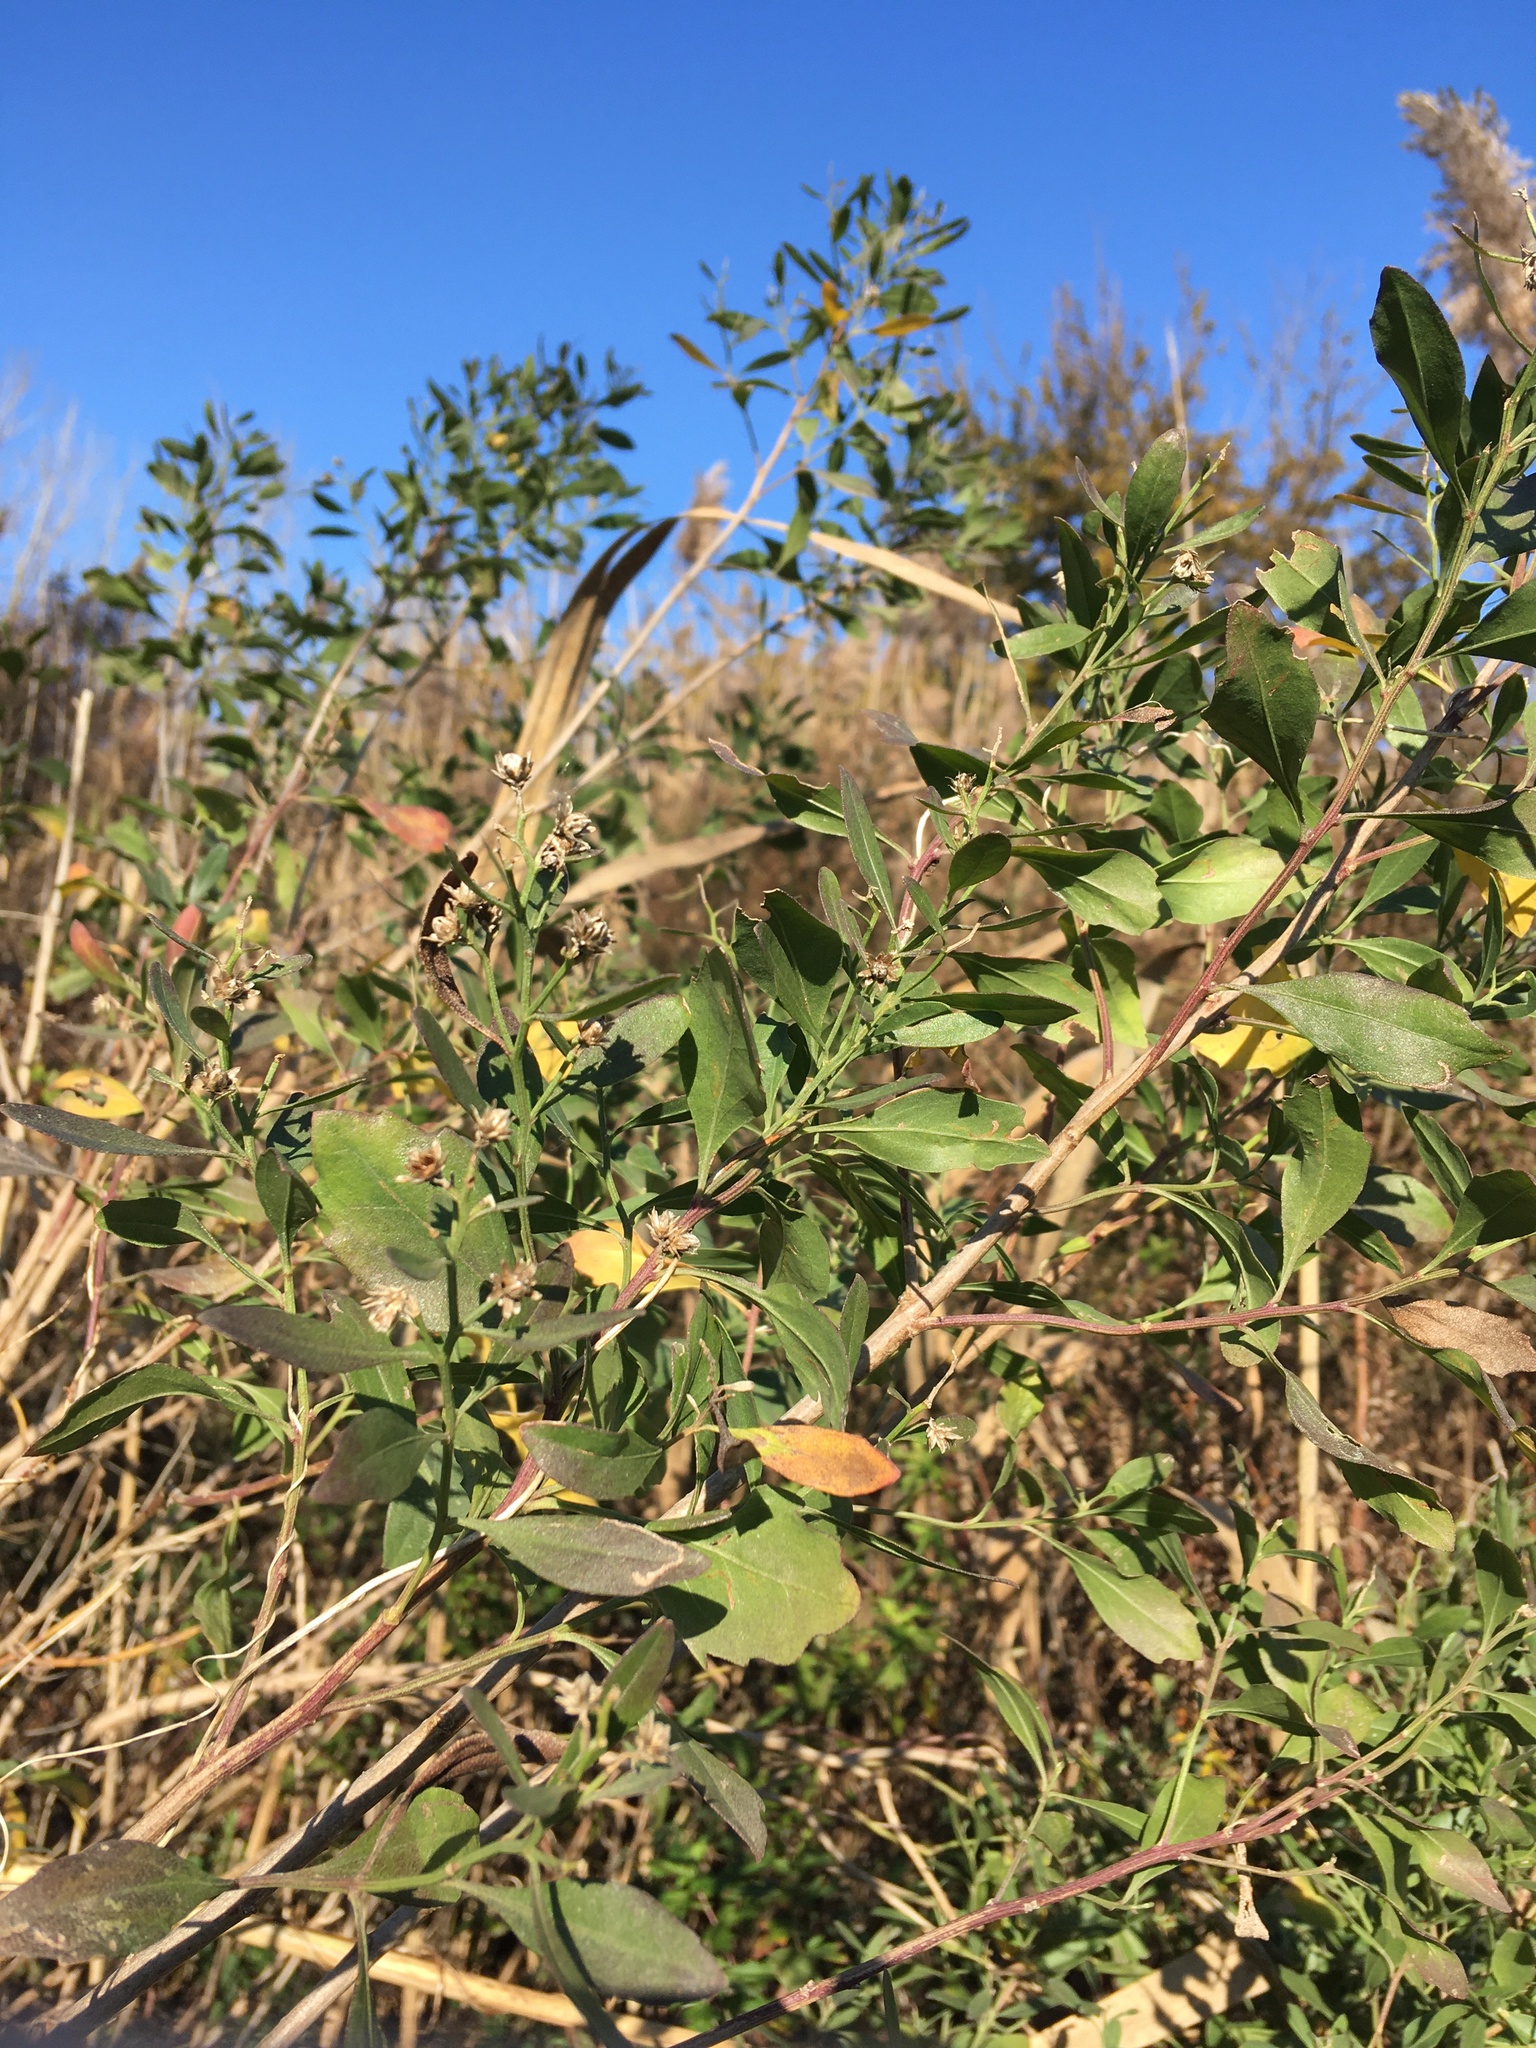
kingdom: Plantae
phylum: Tracheophyta
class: Magnoliopsida
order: Asterales
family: Asteraceae
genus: Baccharis
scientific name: Baccharis halimifolia
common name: Eastern baccharis
